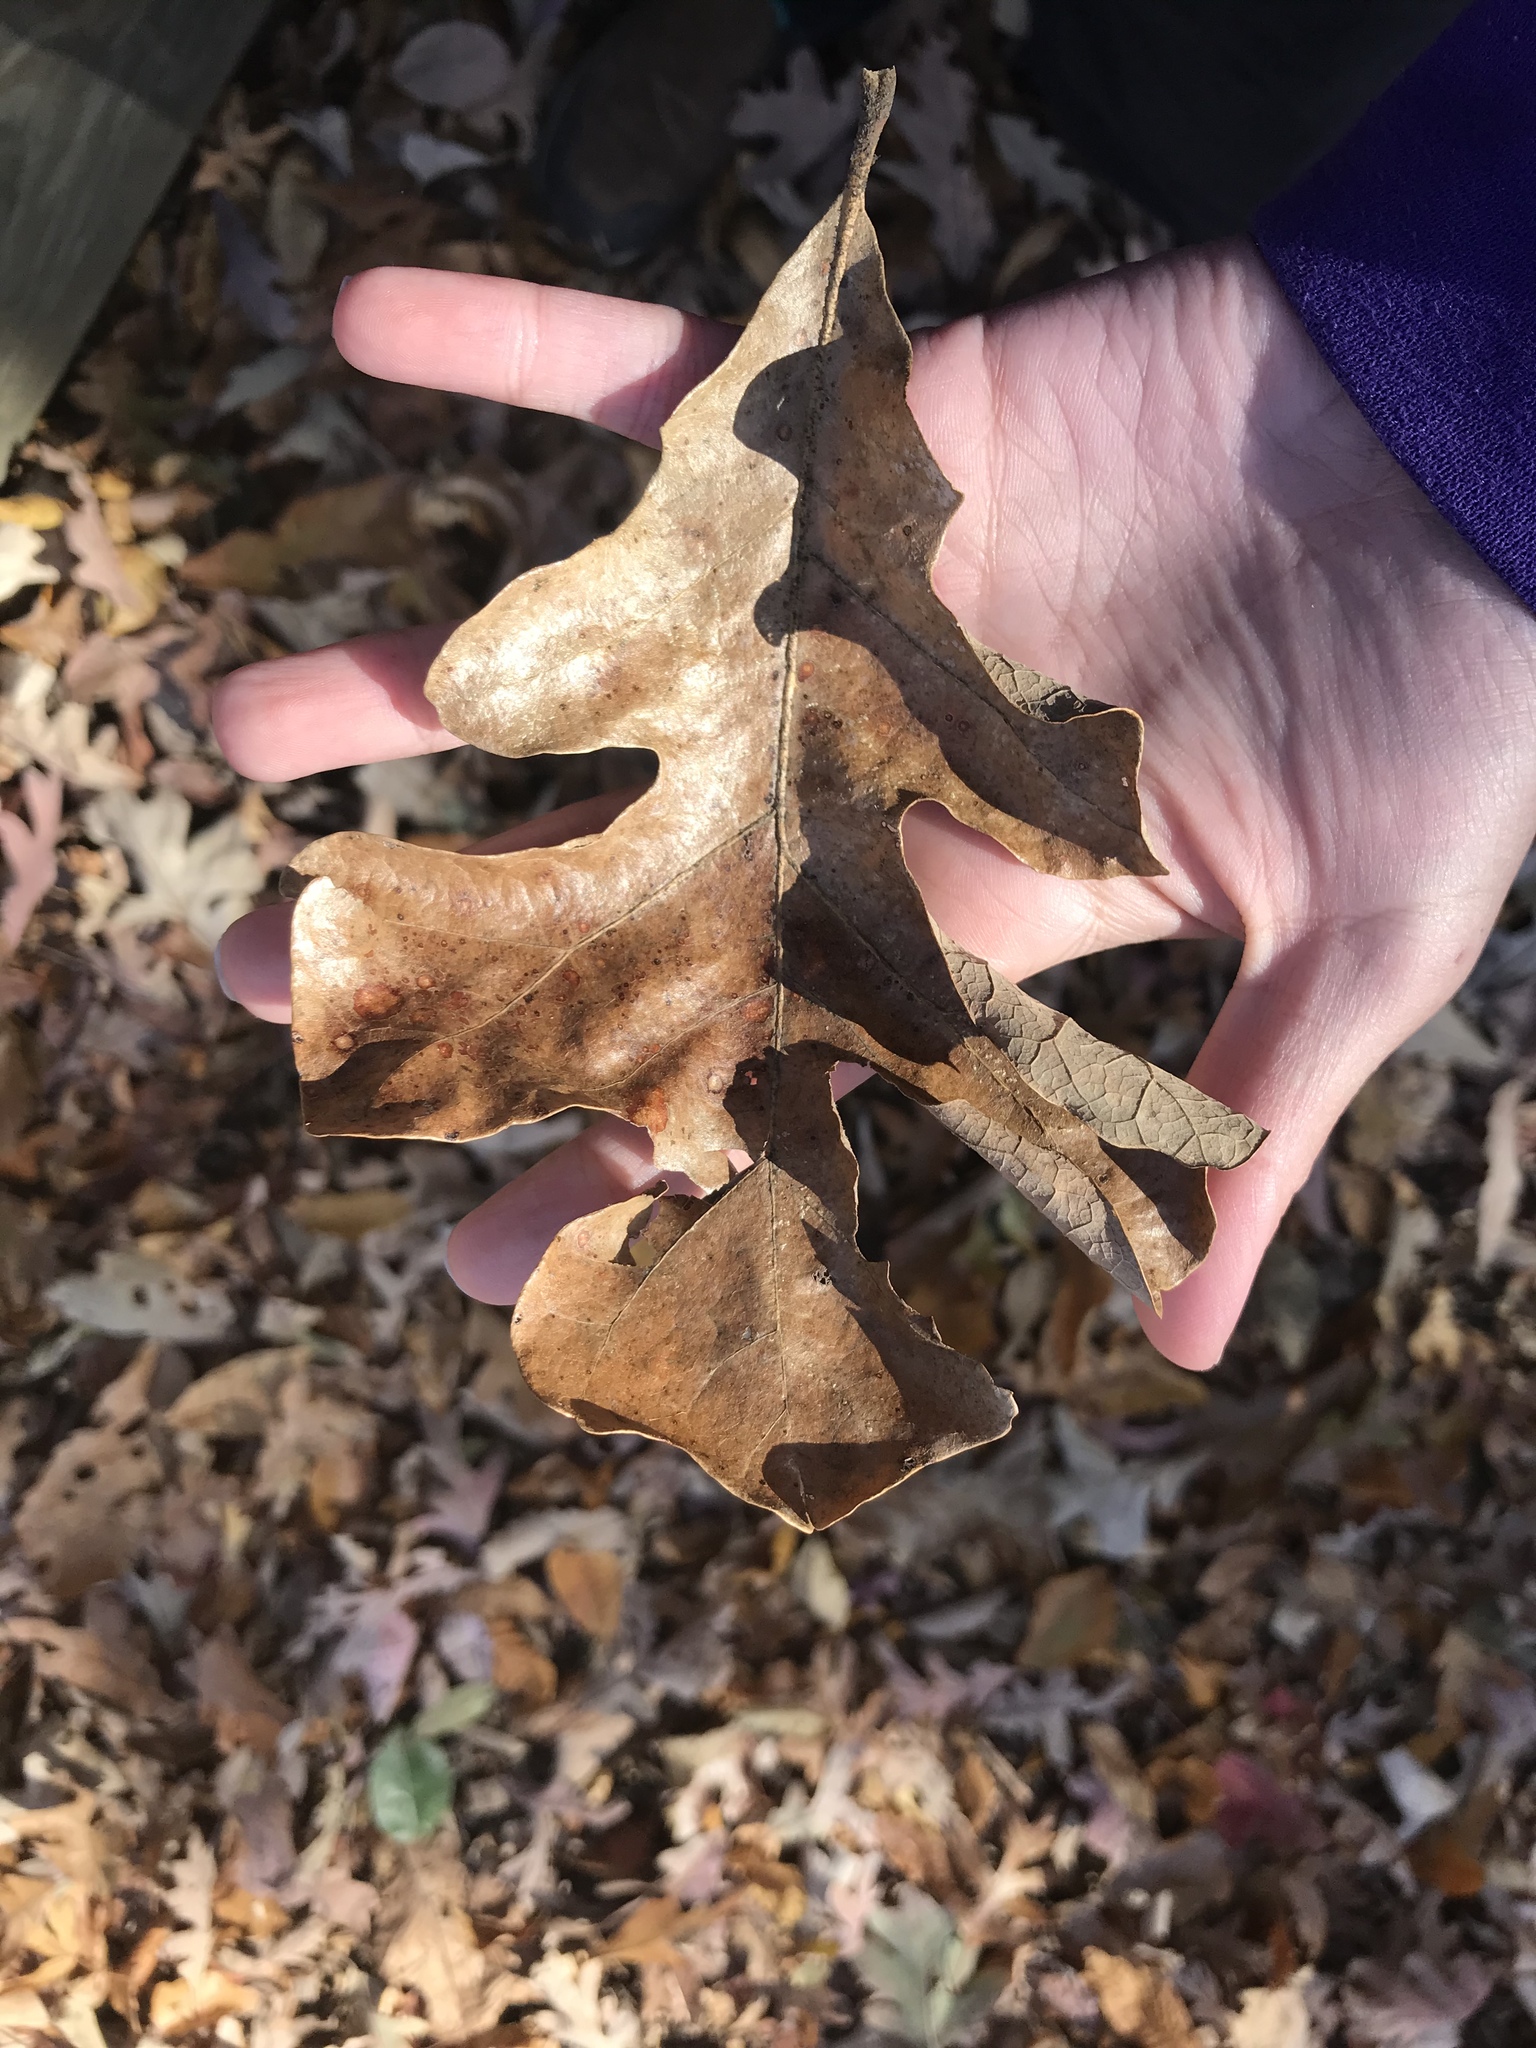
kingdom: Plantae
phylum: Tracheophyta
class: Magnoliopsida
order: Fagales
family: Fagaceae
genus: Quercus
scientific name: Quercus stellata
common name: Post oak
